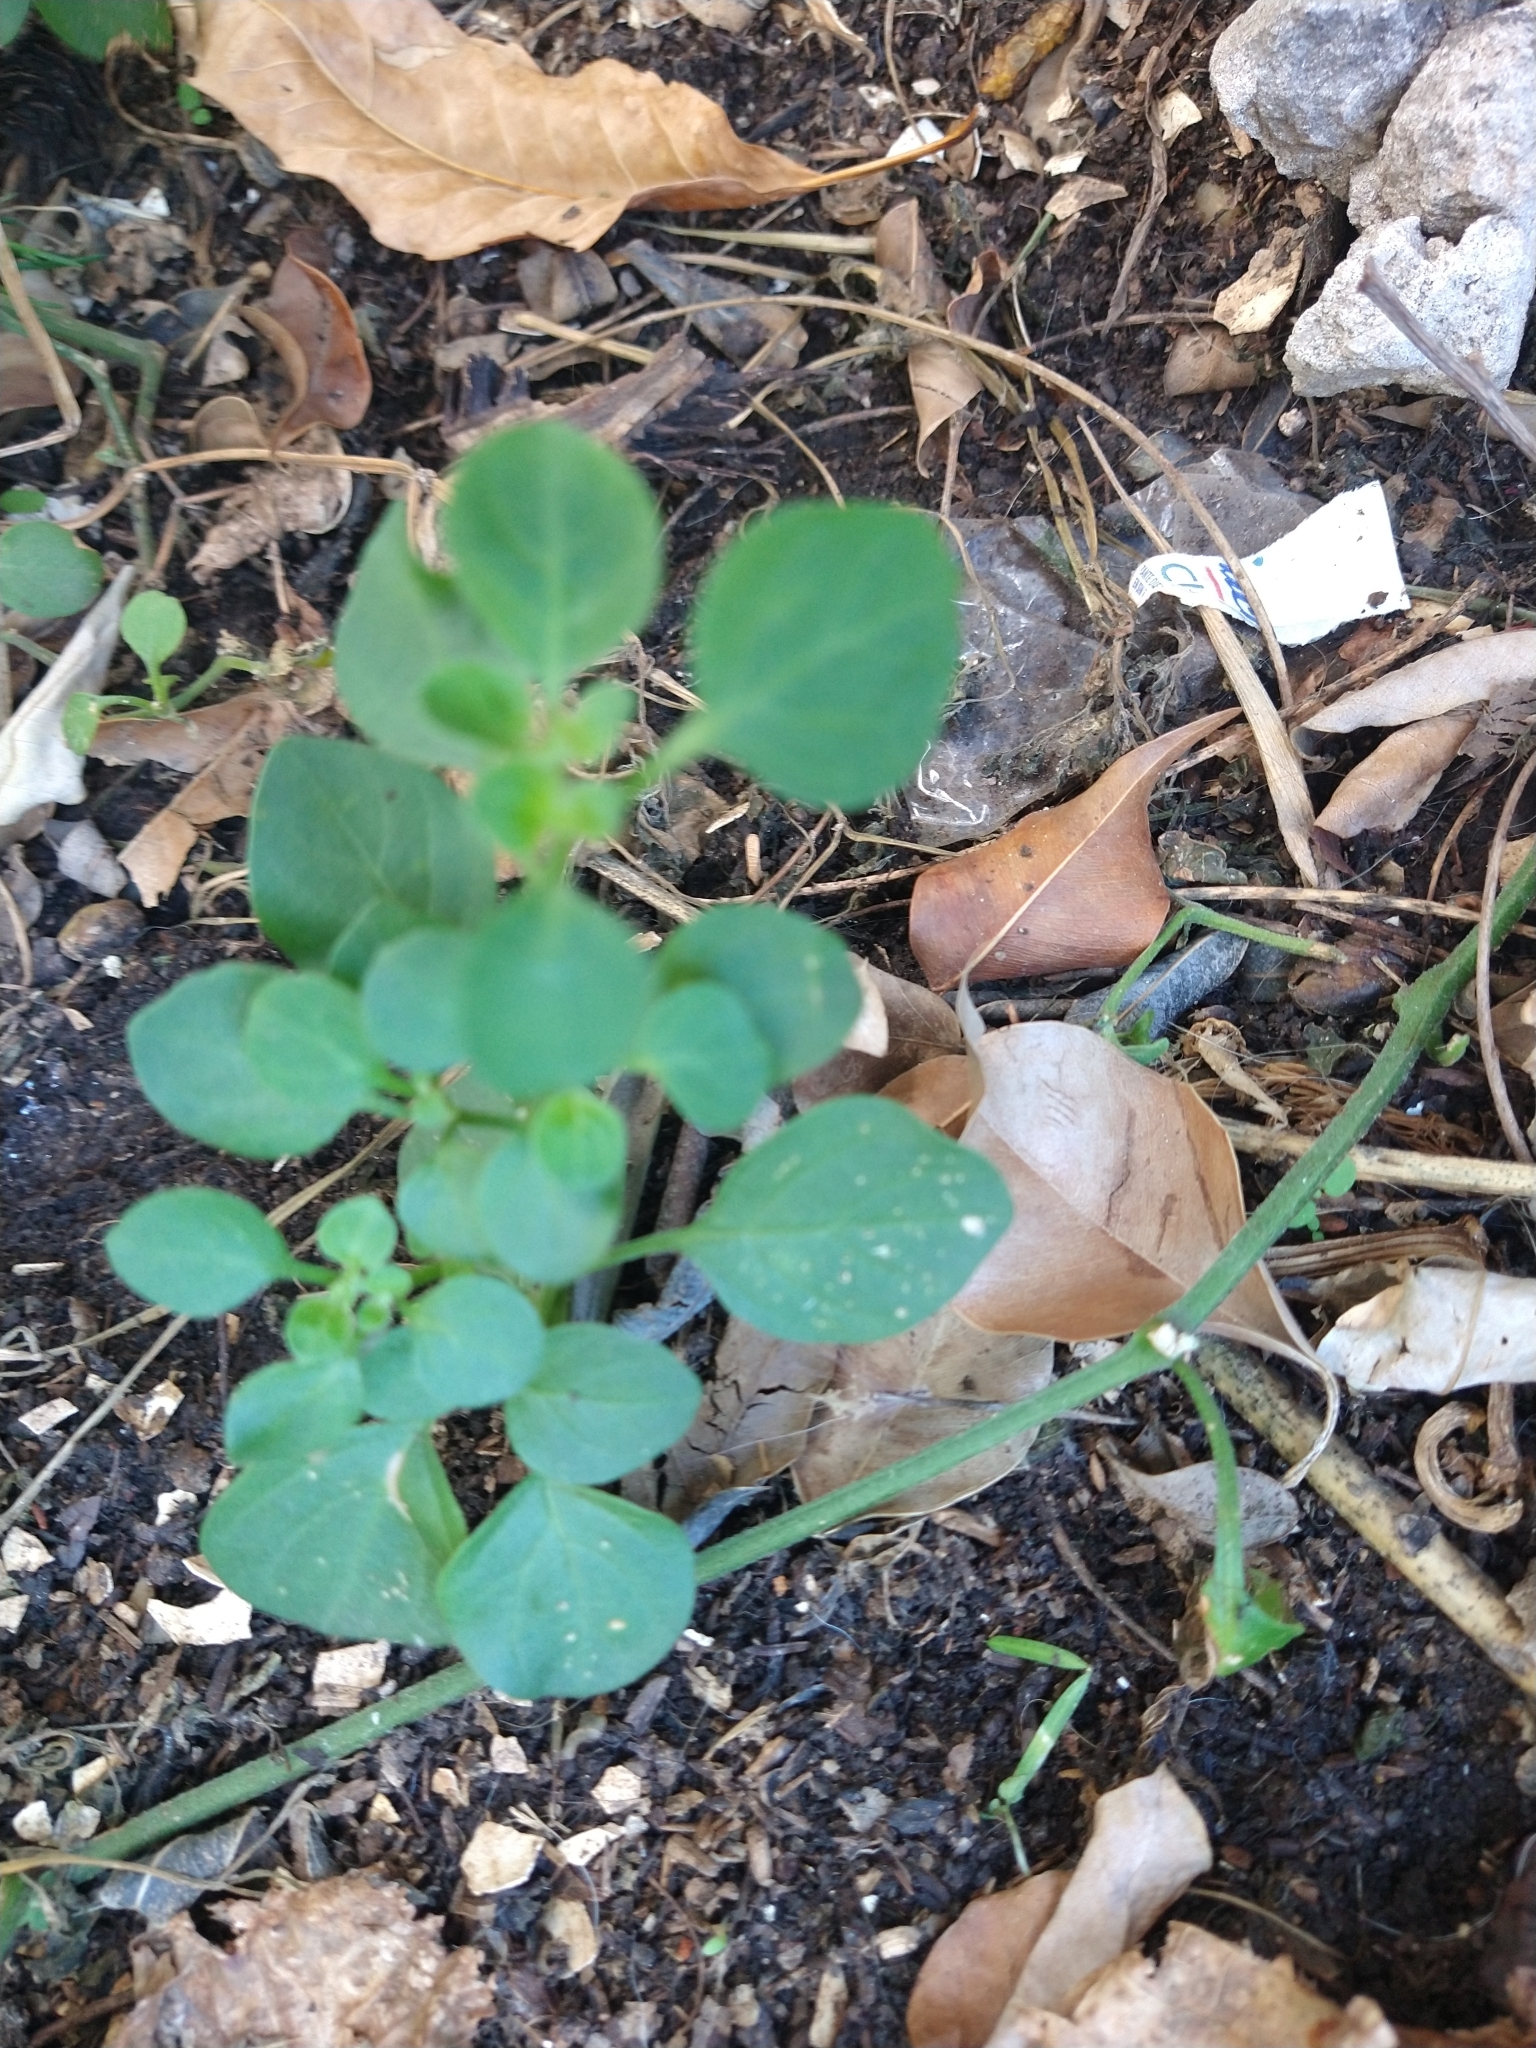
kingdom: Plantae
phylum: Tracheophyta
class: Magnoliopsida
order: Solanales
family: Solanaceae
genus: Salpichroa
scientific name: Salpichroa origanifolia
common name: Lily-of-the-valley-vine
